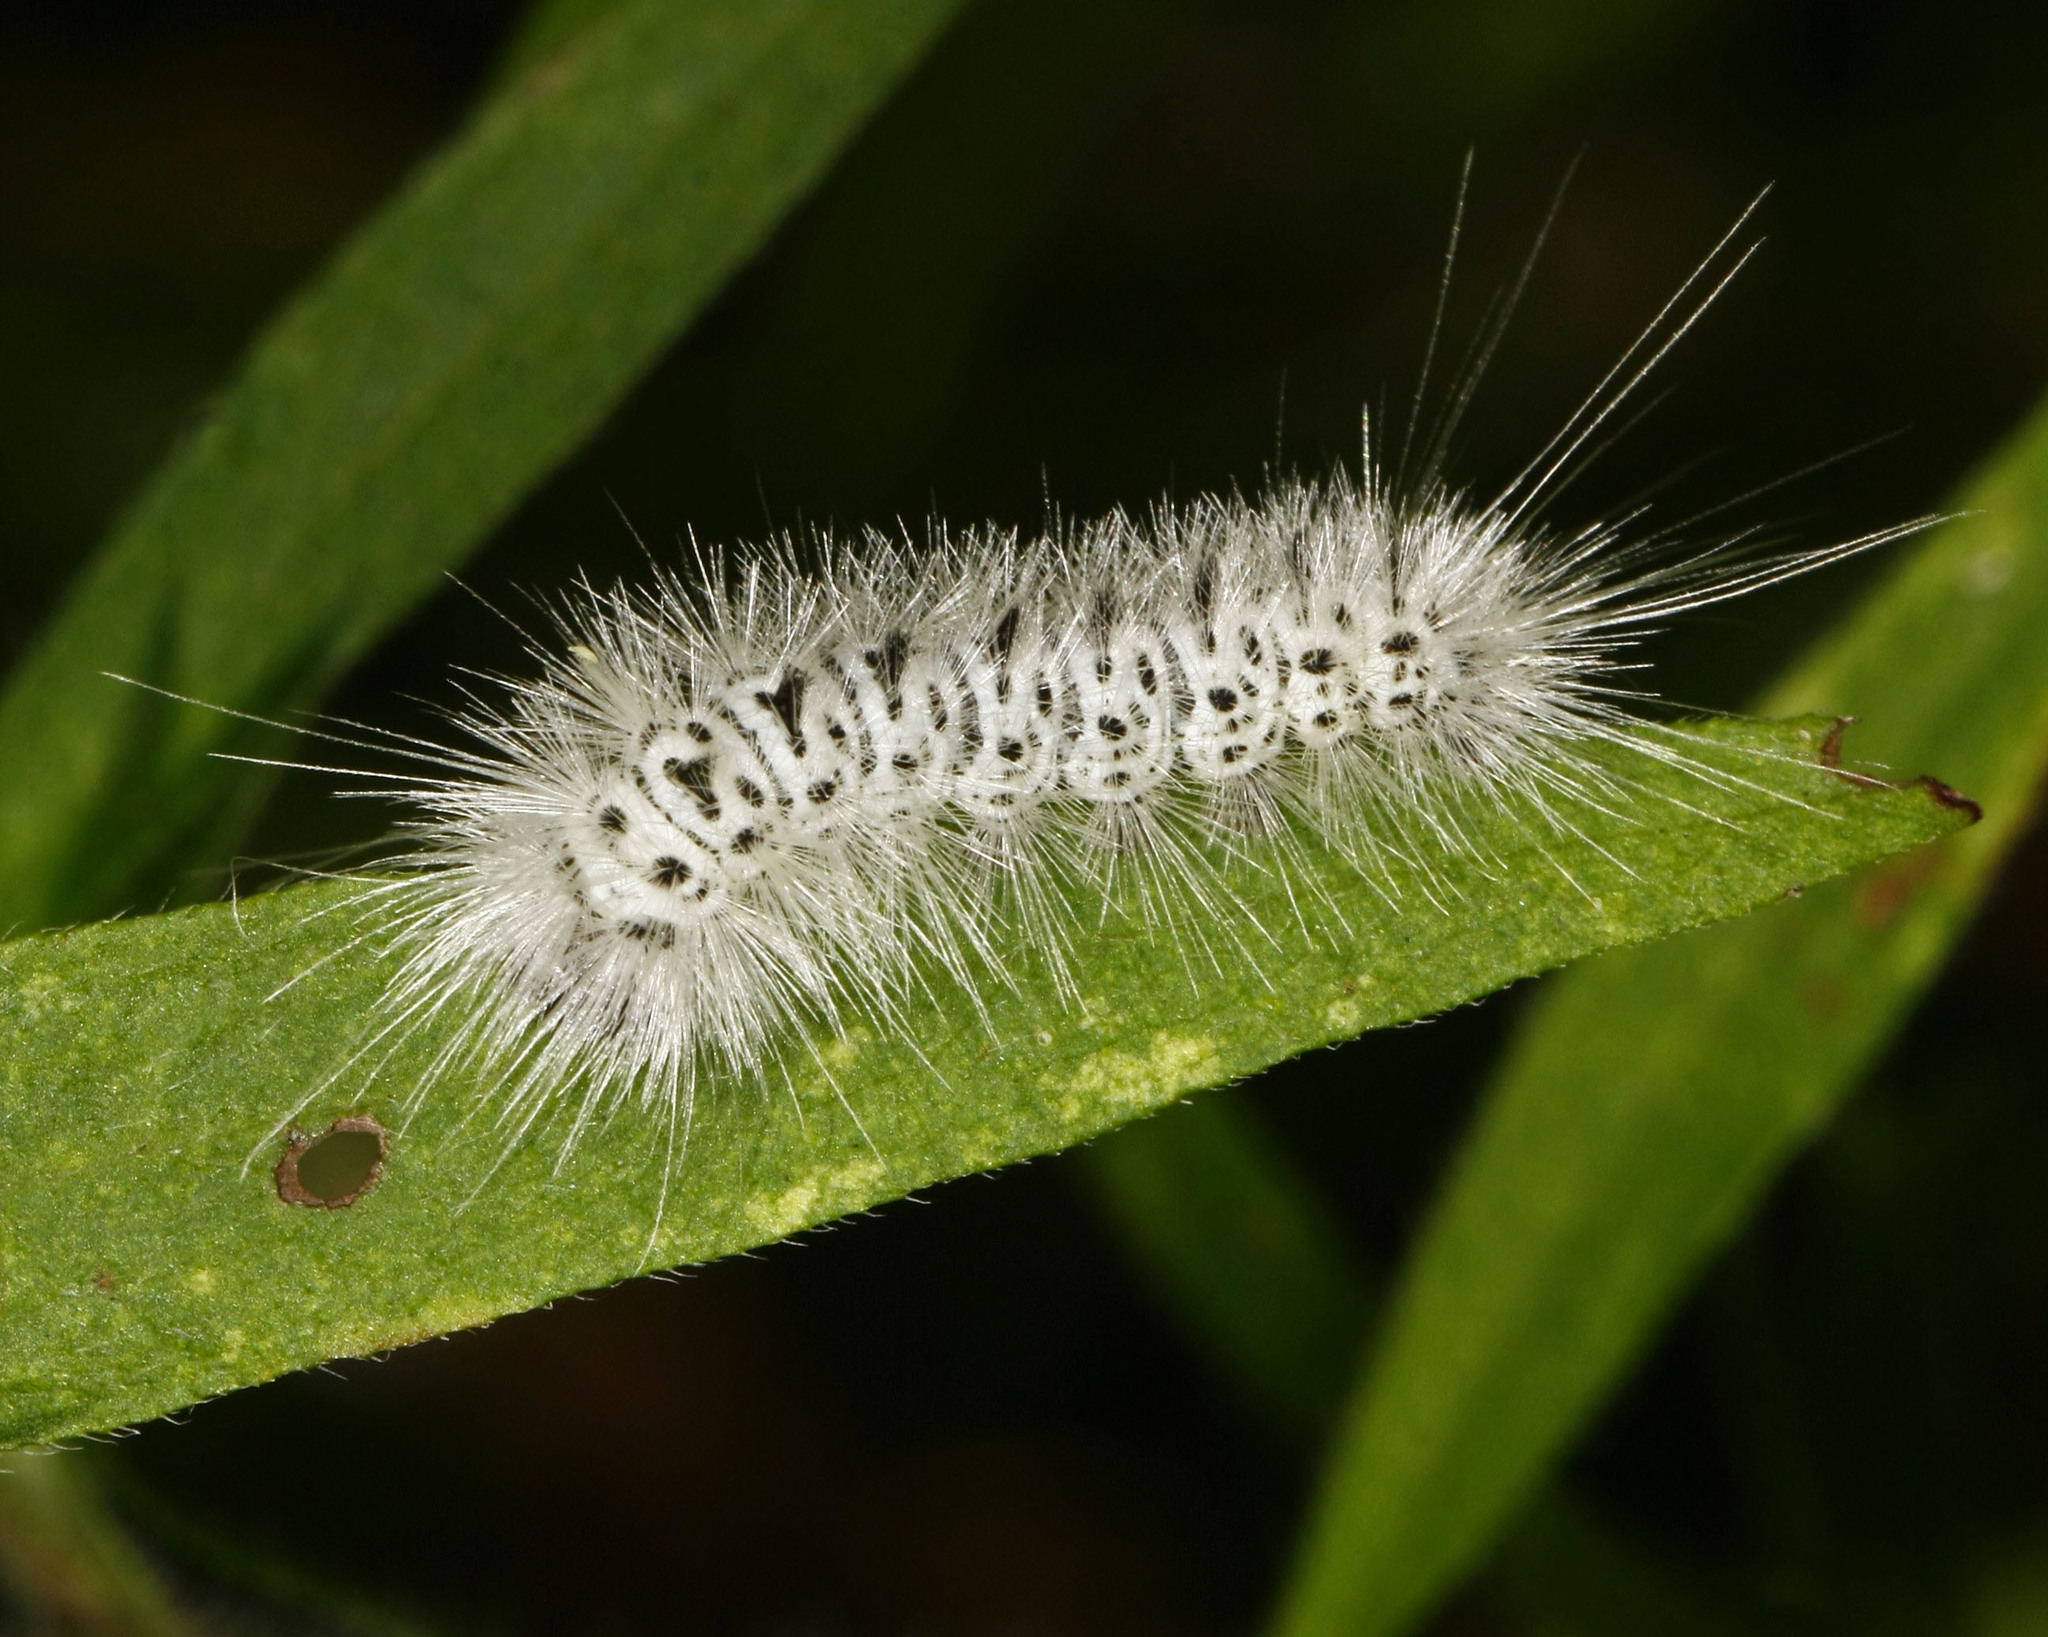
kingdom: Animalia
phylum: Arthropoda
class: Insecta
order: Lepidoptera
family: Erebidae
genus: Lophocampa
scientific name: Lophocampa caryae
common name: Hickory tussock moth
